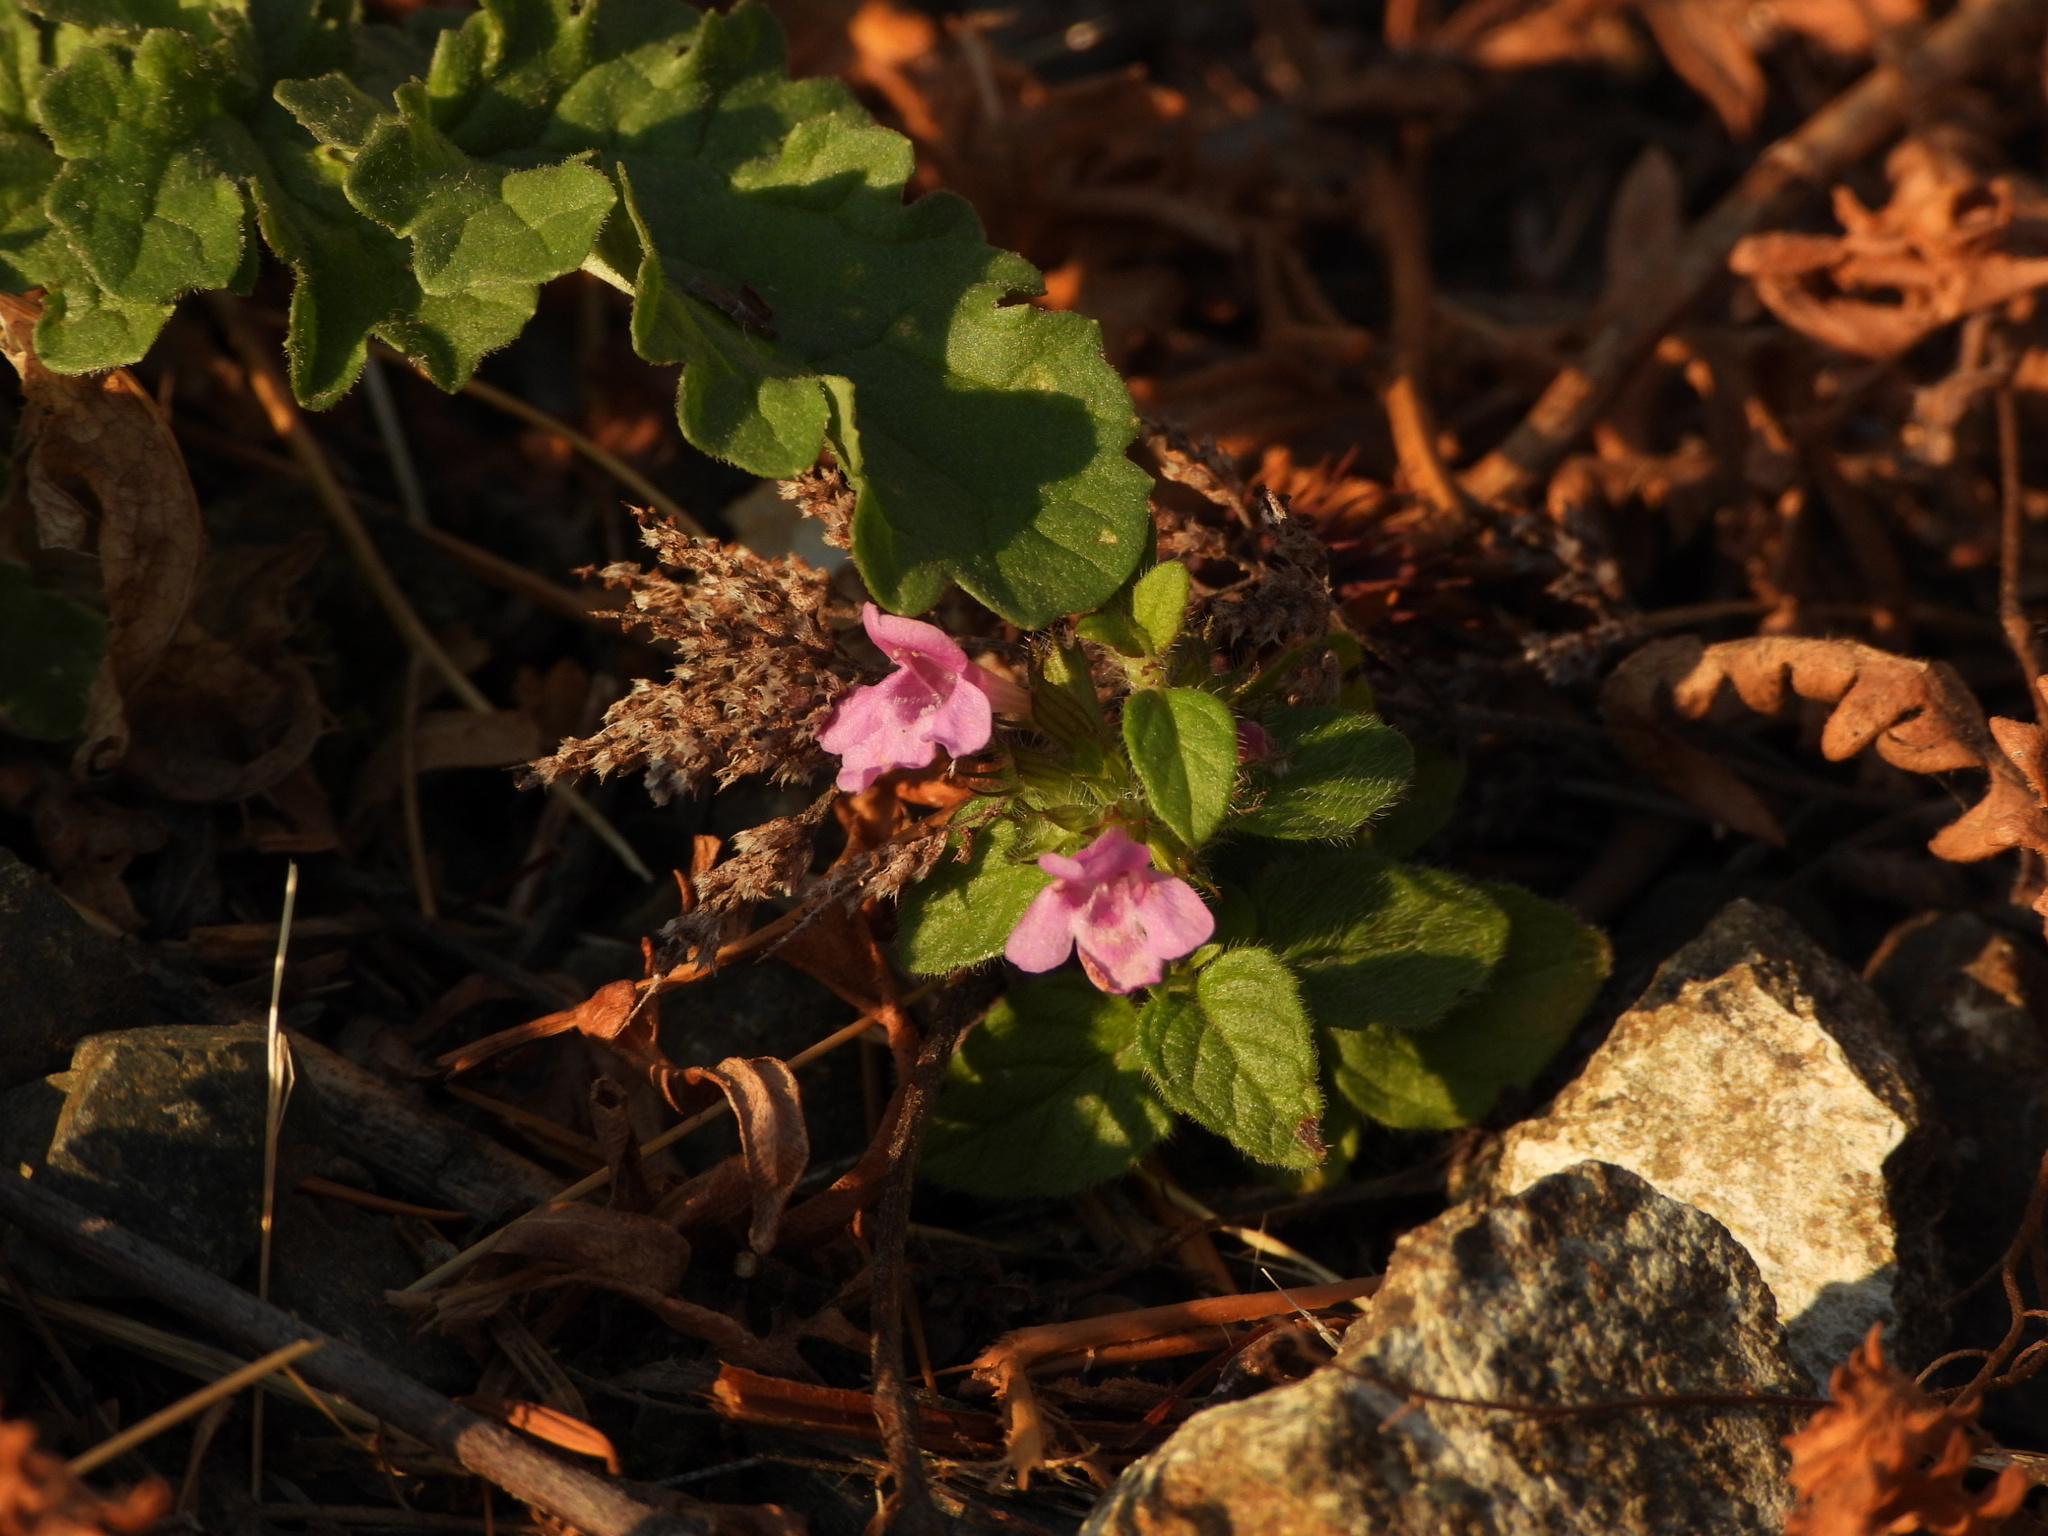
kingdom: Plantae
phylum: Tracheophyta
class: Magnoliopsida
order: Lamiales
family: Lamiaceae
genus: Clinopodium
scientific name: Clinopodium vulgare
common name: Wild basil
